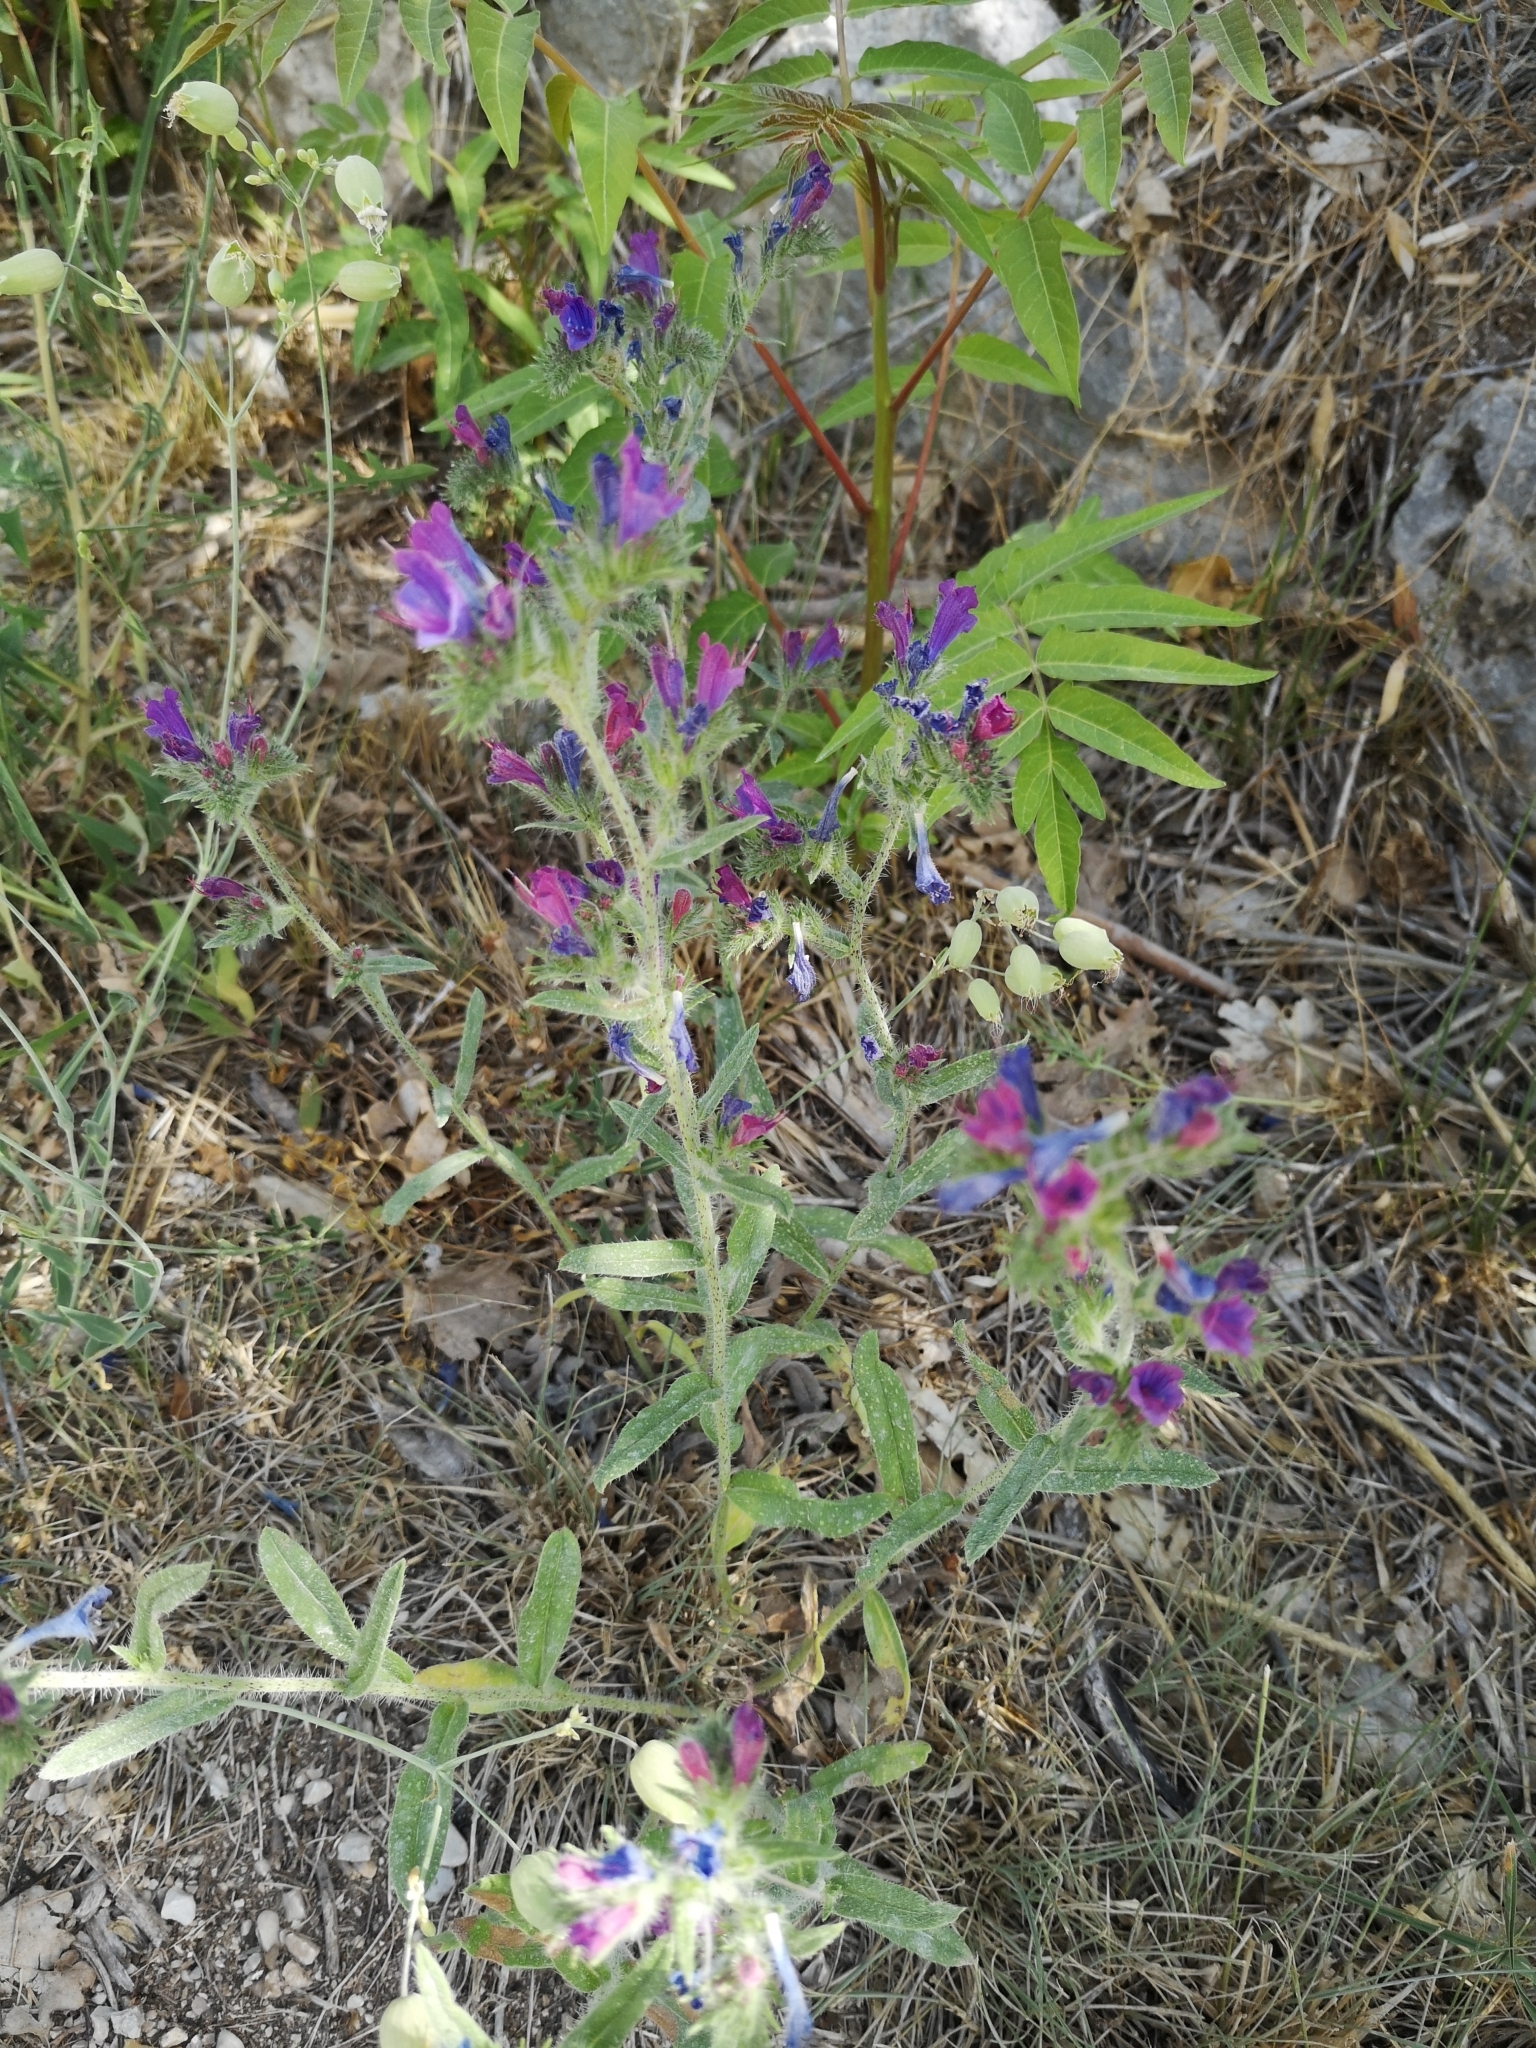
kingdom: Plantae
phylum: Tracheophyta
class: Magnoliopsida
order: Boraginales
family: Boraginaceae
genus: Echium
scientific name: Echium vulgare
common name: Common viper's bugloss
